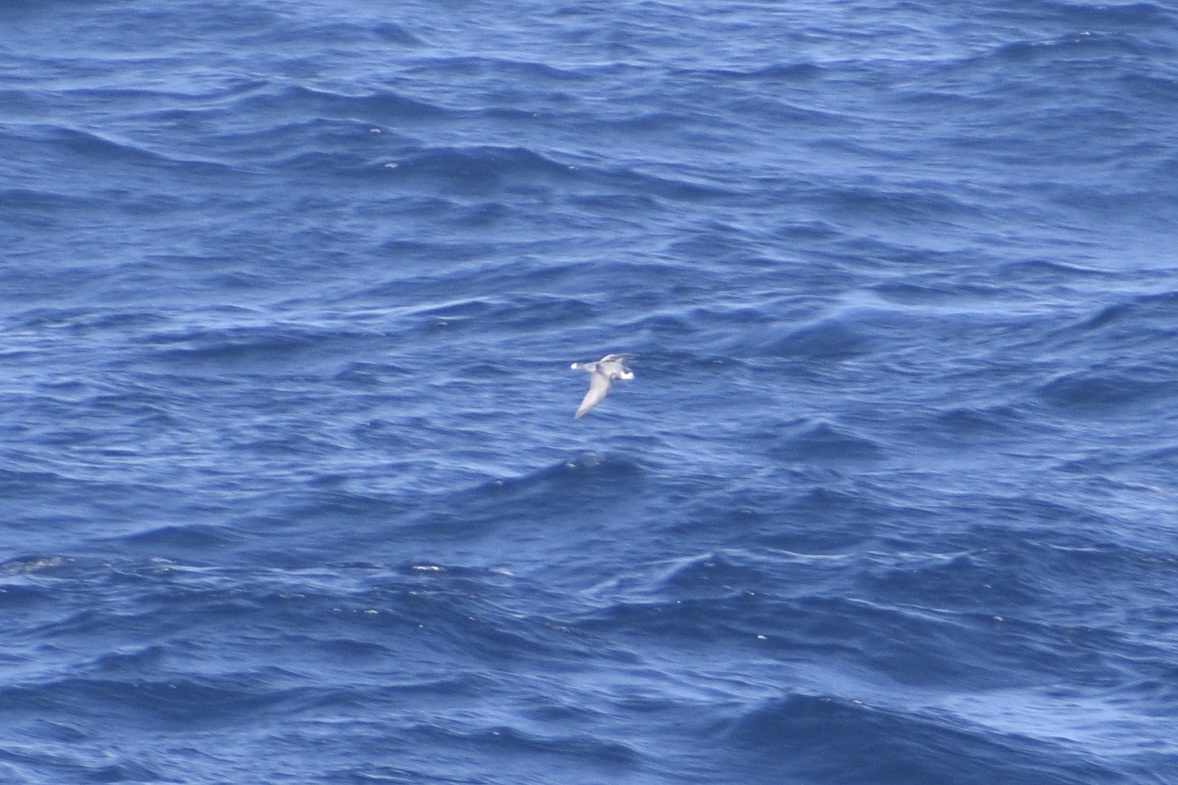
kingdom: Animalia
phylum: Chordata
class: Aves
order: Procellariiformes
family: Procellariidae
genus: Halobaena
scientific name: Halobaena caerulea
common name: Blue petrel
